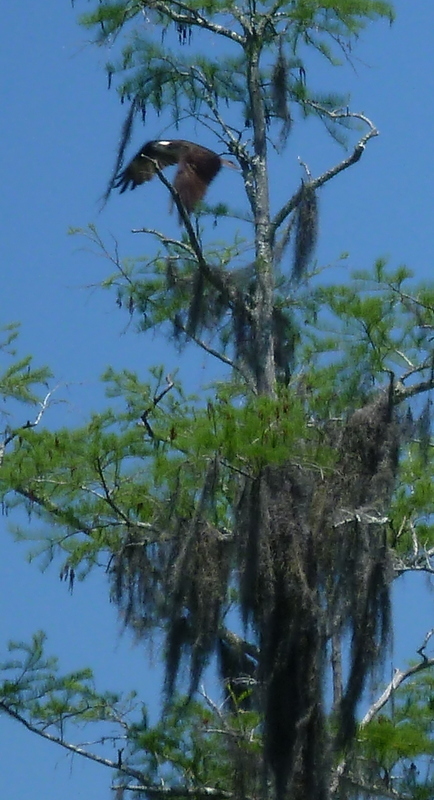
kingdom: Animalia
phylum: Chordata
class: Aves
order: Accipitriformes
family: Pandionidae
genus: Pandion
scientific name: Pandion haliaetus
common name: Osprey
